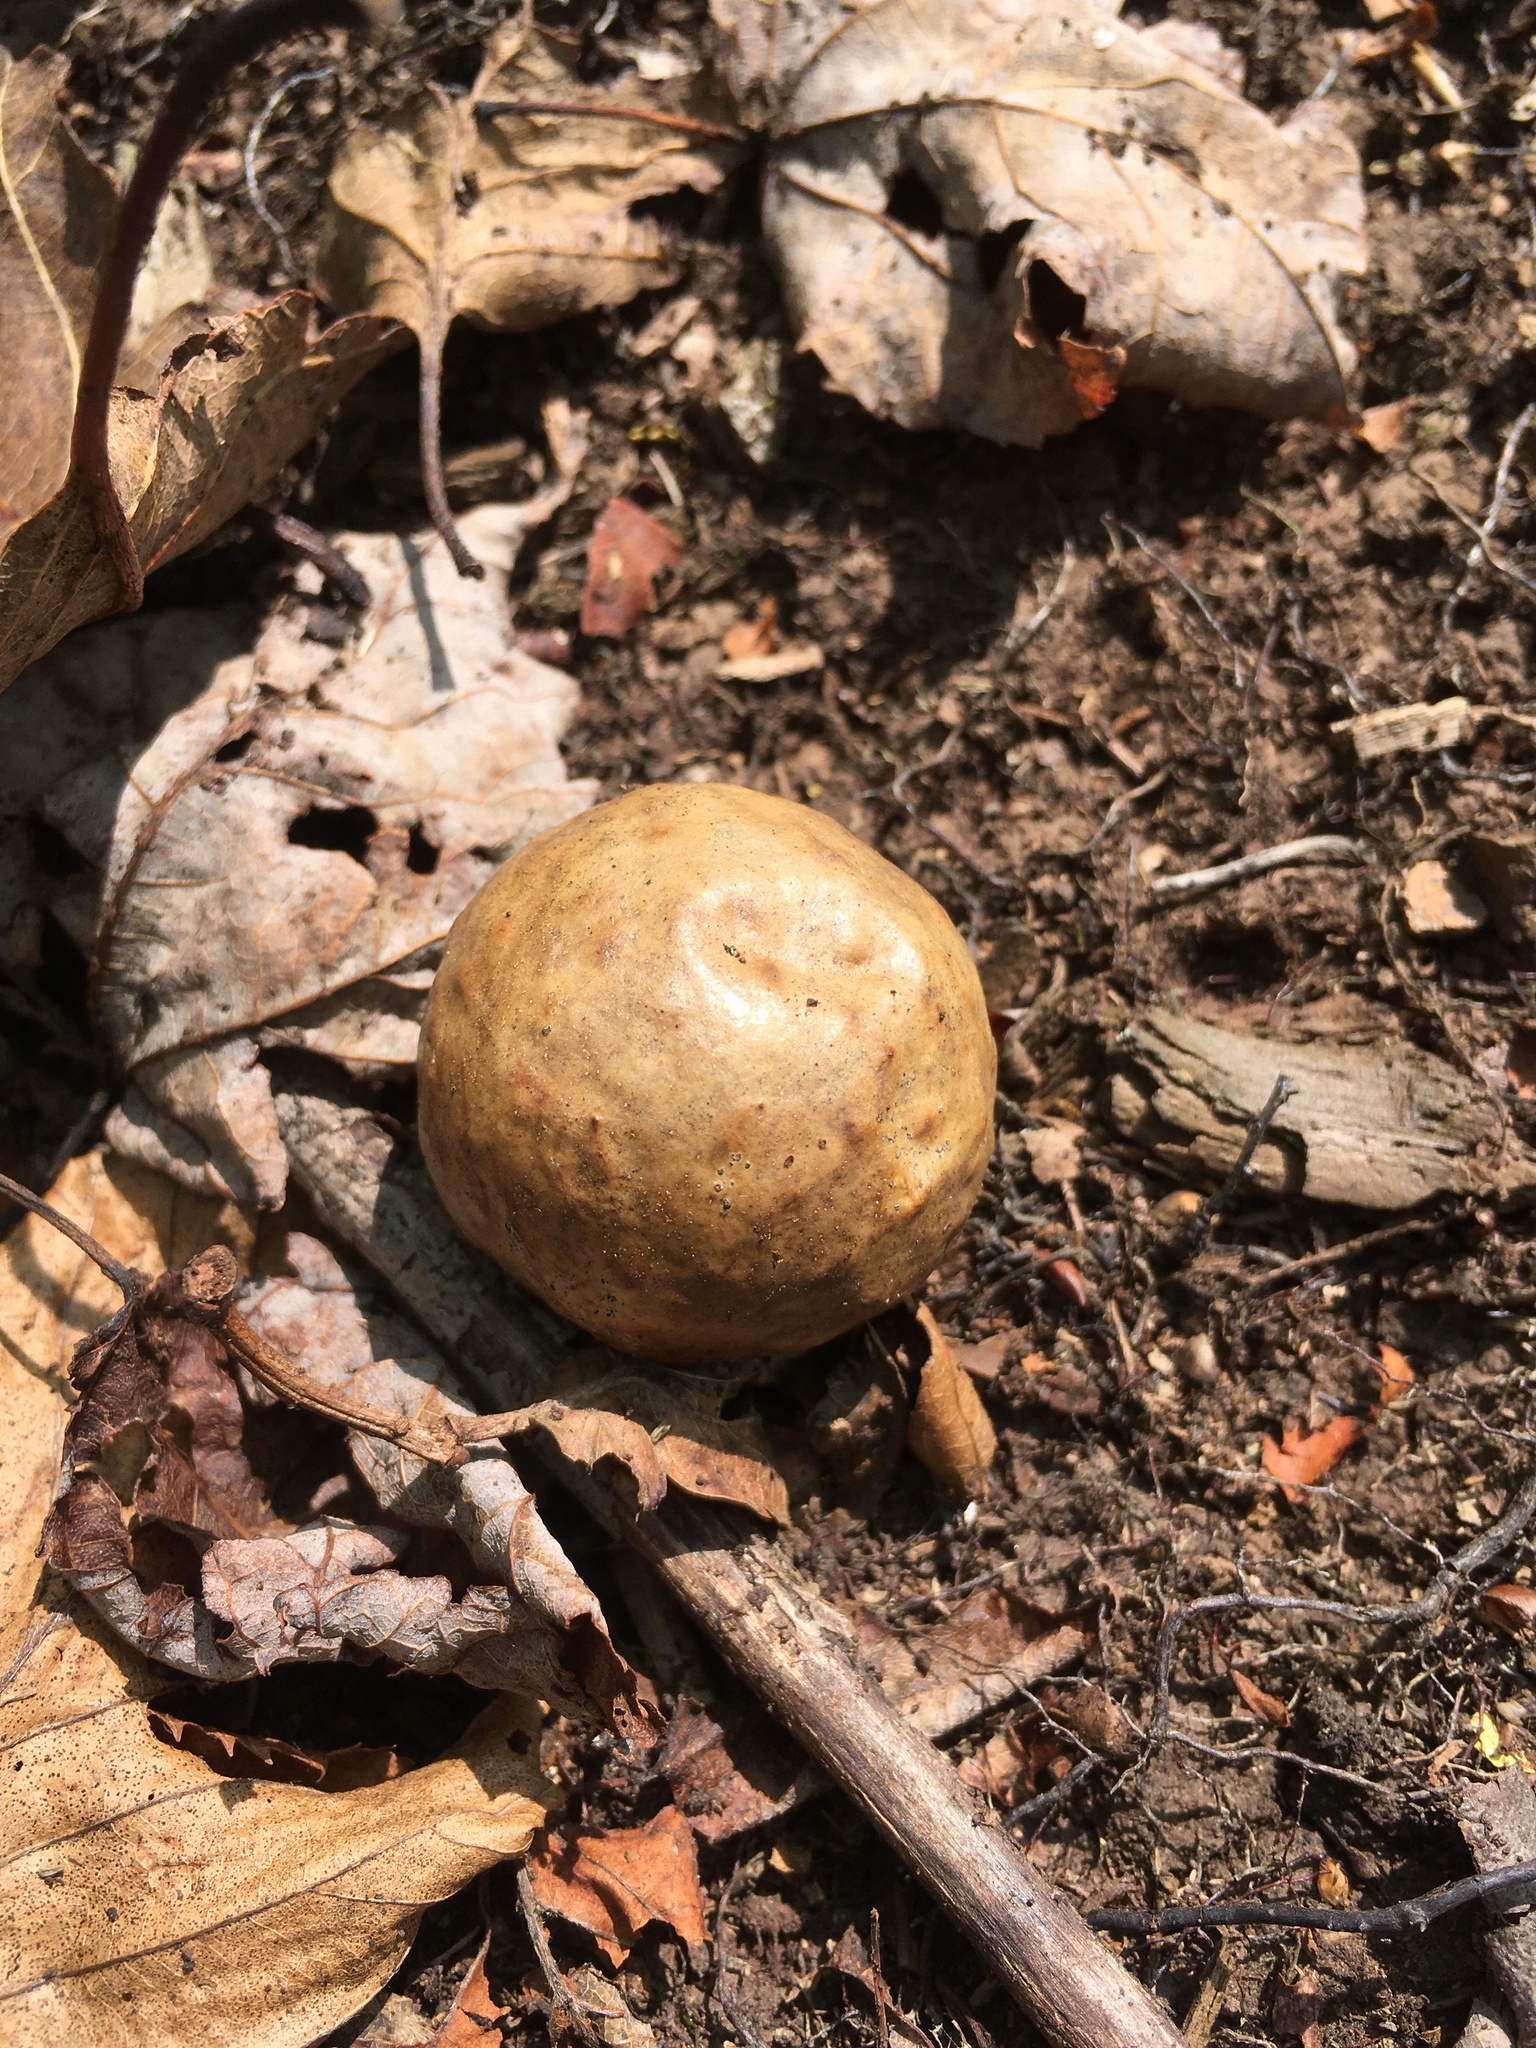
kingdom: Animalia
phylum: Arthropoda
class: Insecta
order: Hymenoptera
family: Cynipidae
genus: Amphibolips
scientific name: Amphibolips
